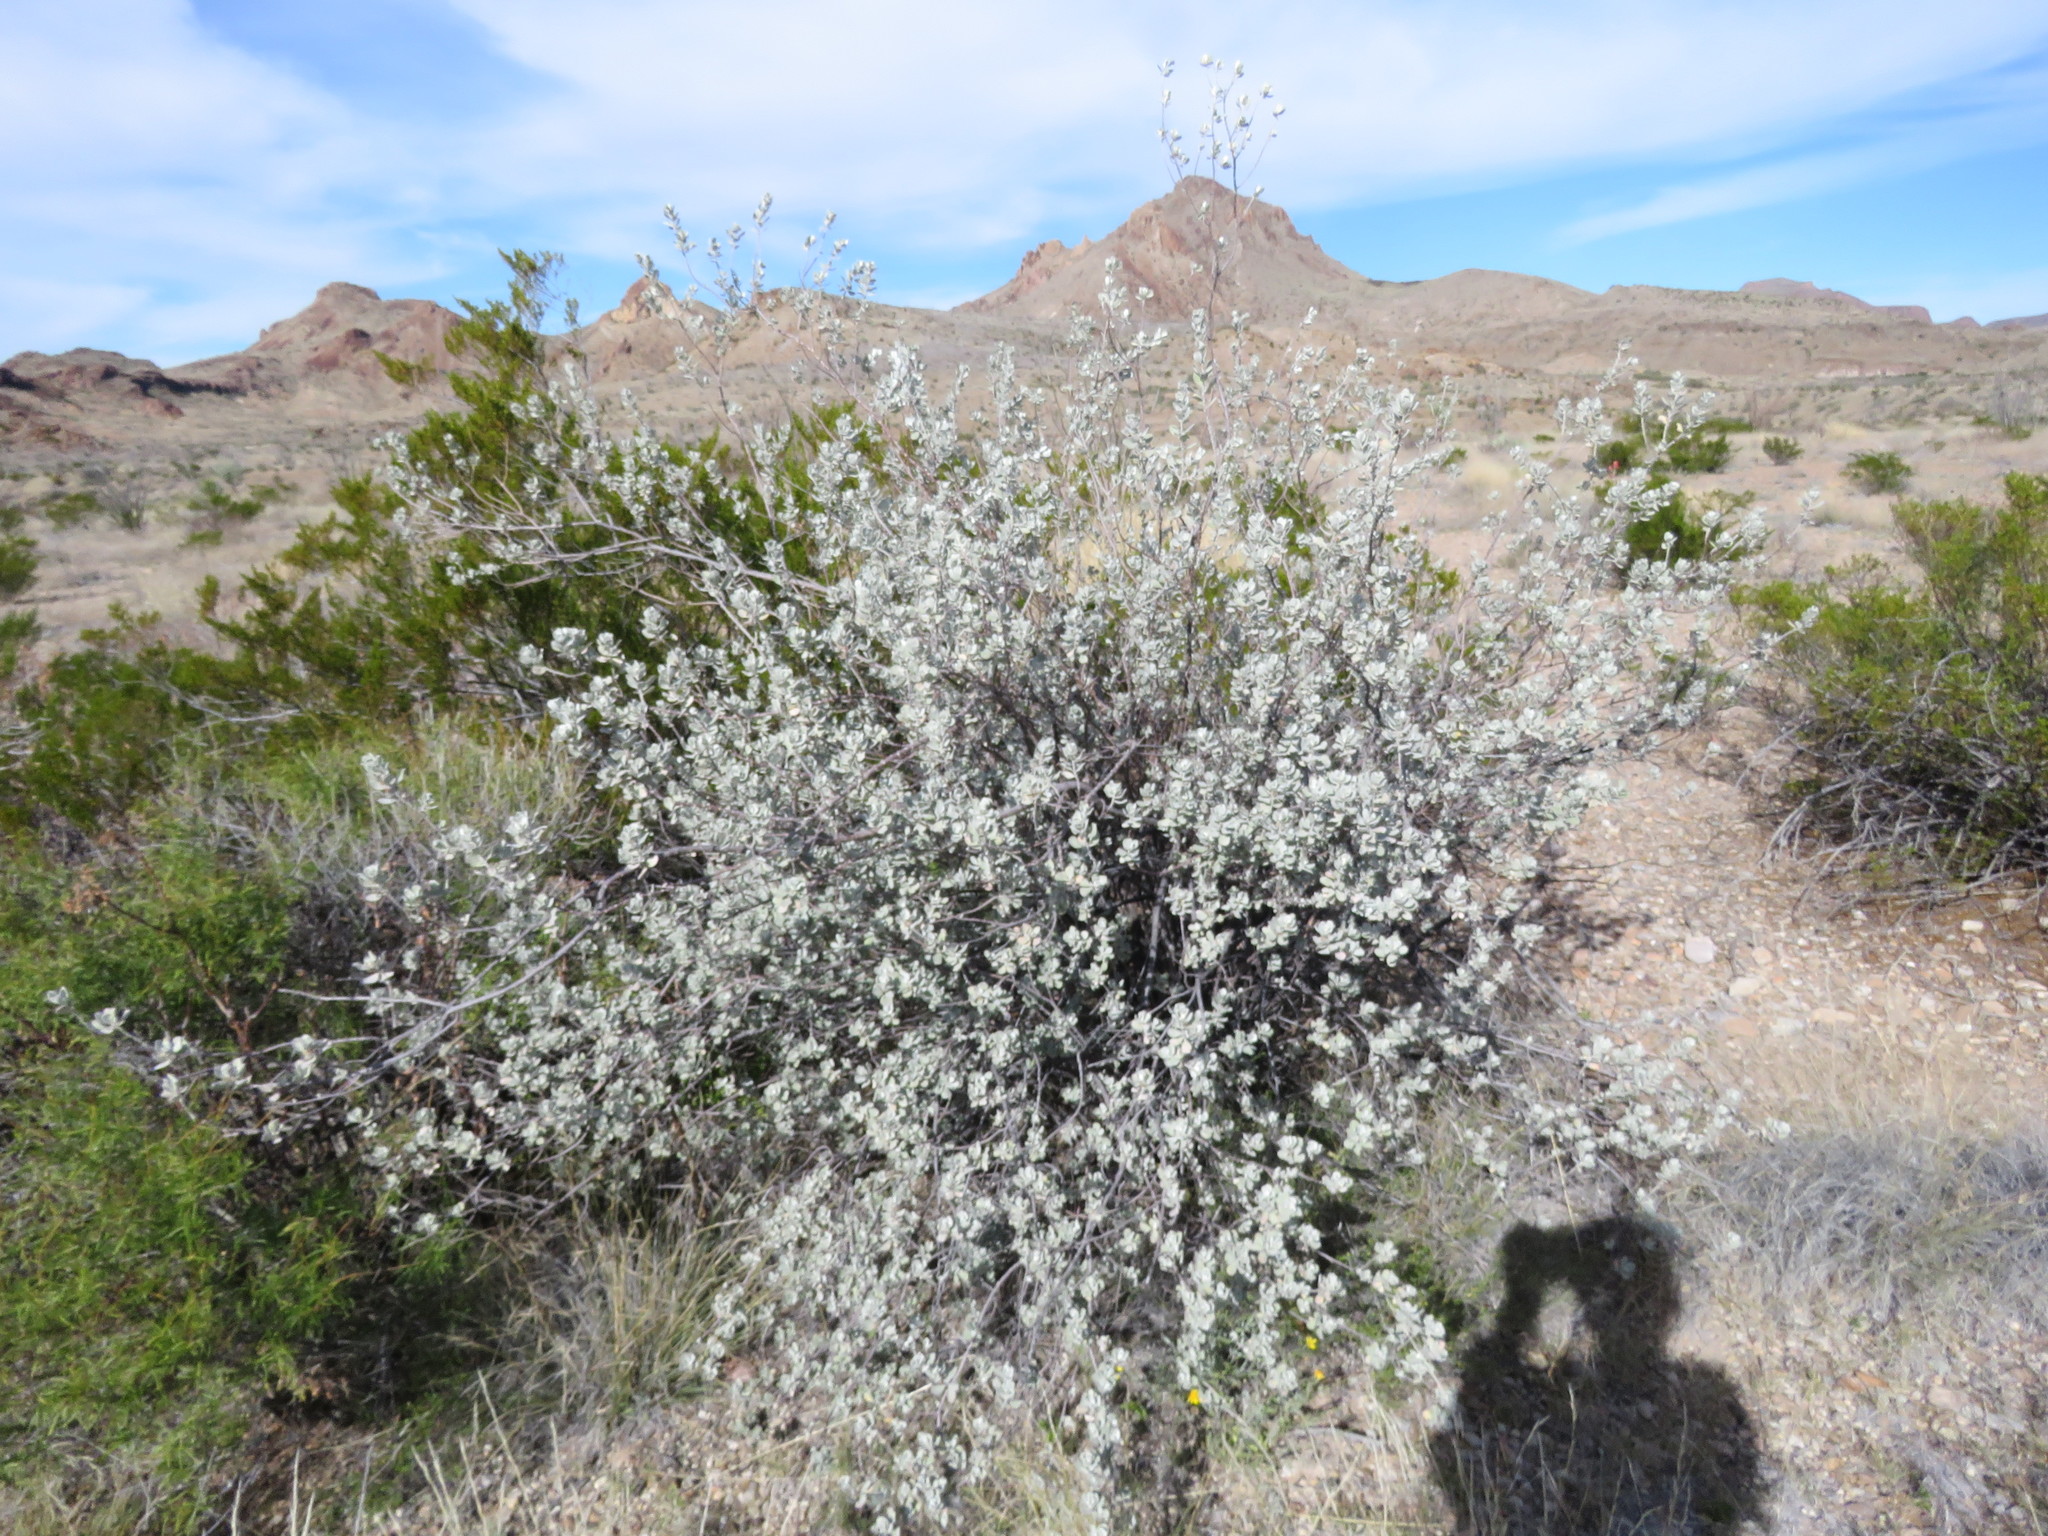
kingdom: Plantae
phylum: Tracheophyta
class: Magnoliopsida
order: Lamiales
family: Scrophulariaceae
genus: Leucophyllum
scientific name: Leucophyllum frutescens
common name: Texas silverleaf
